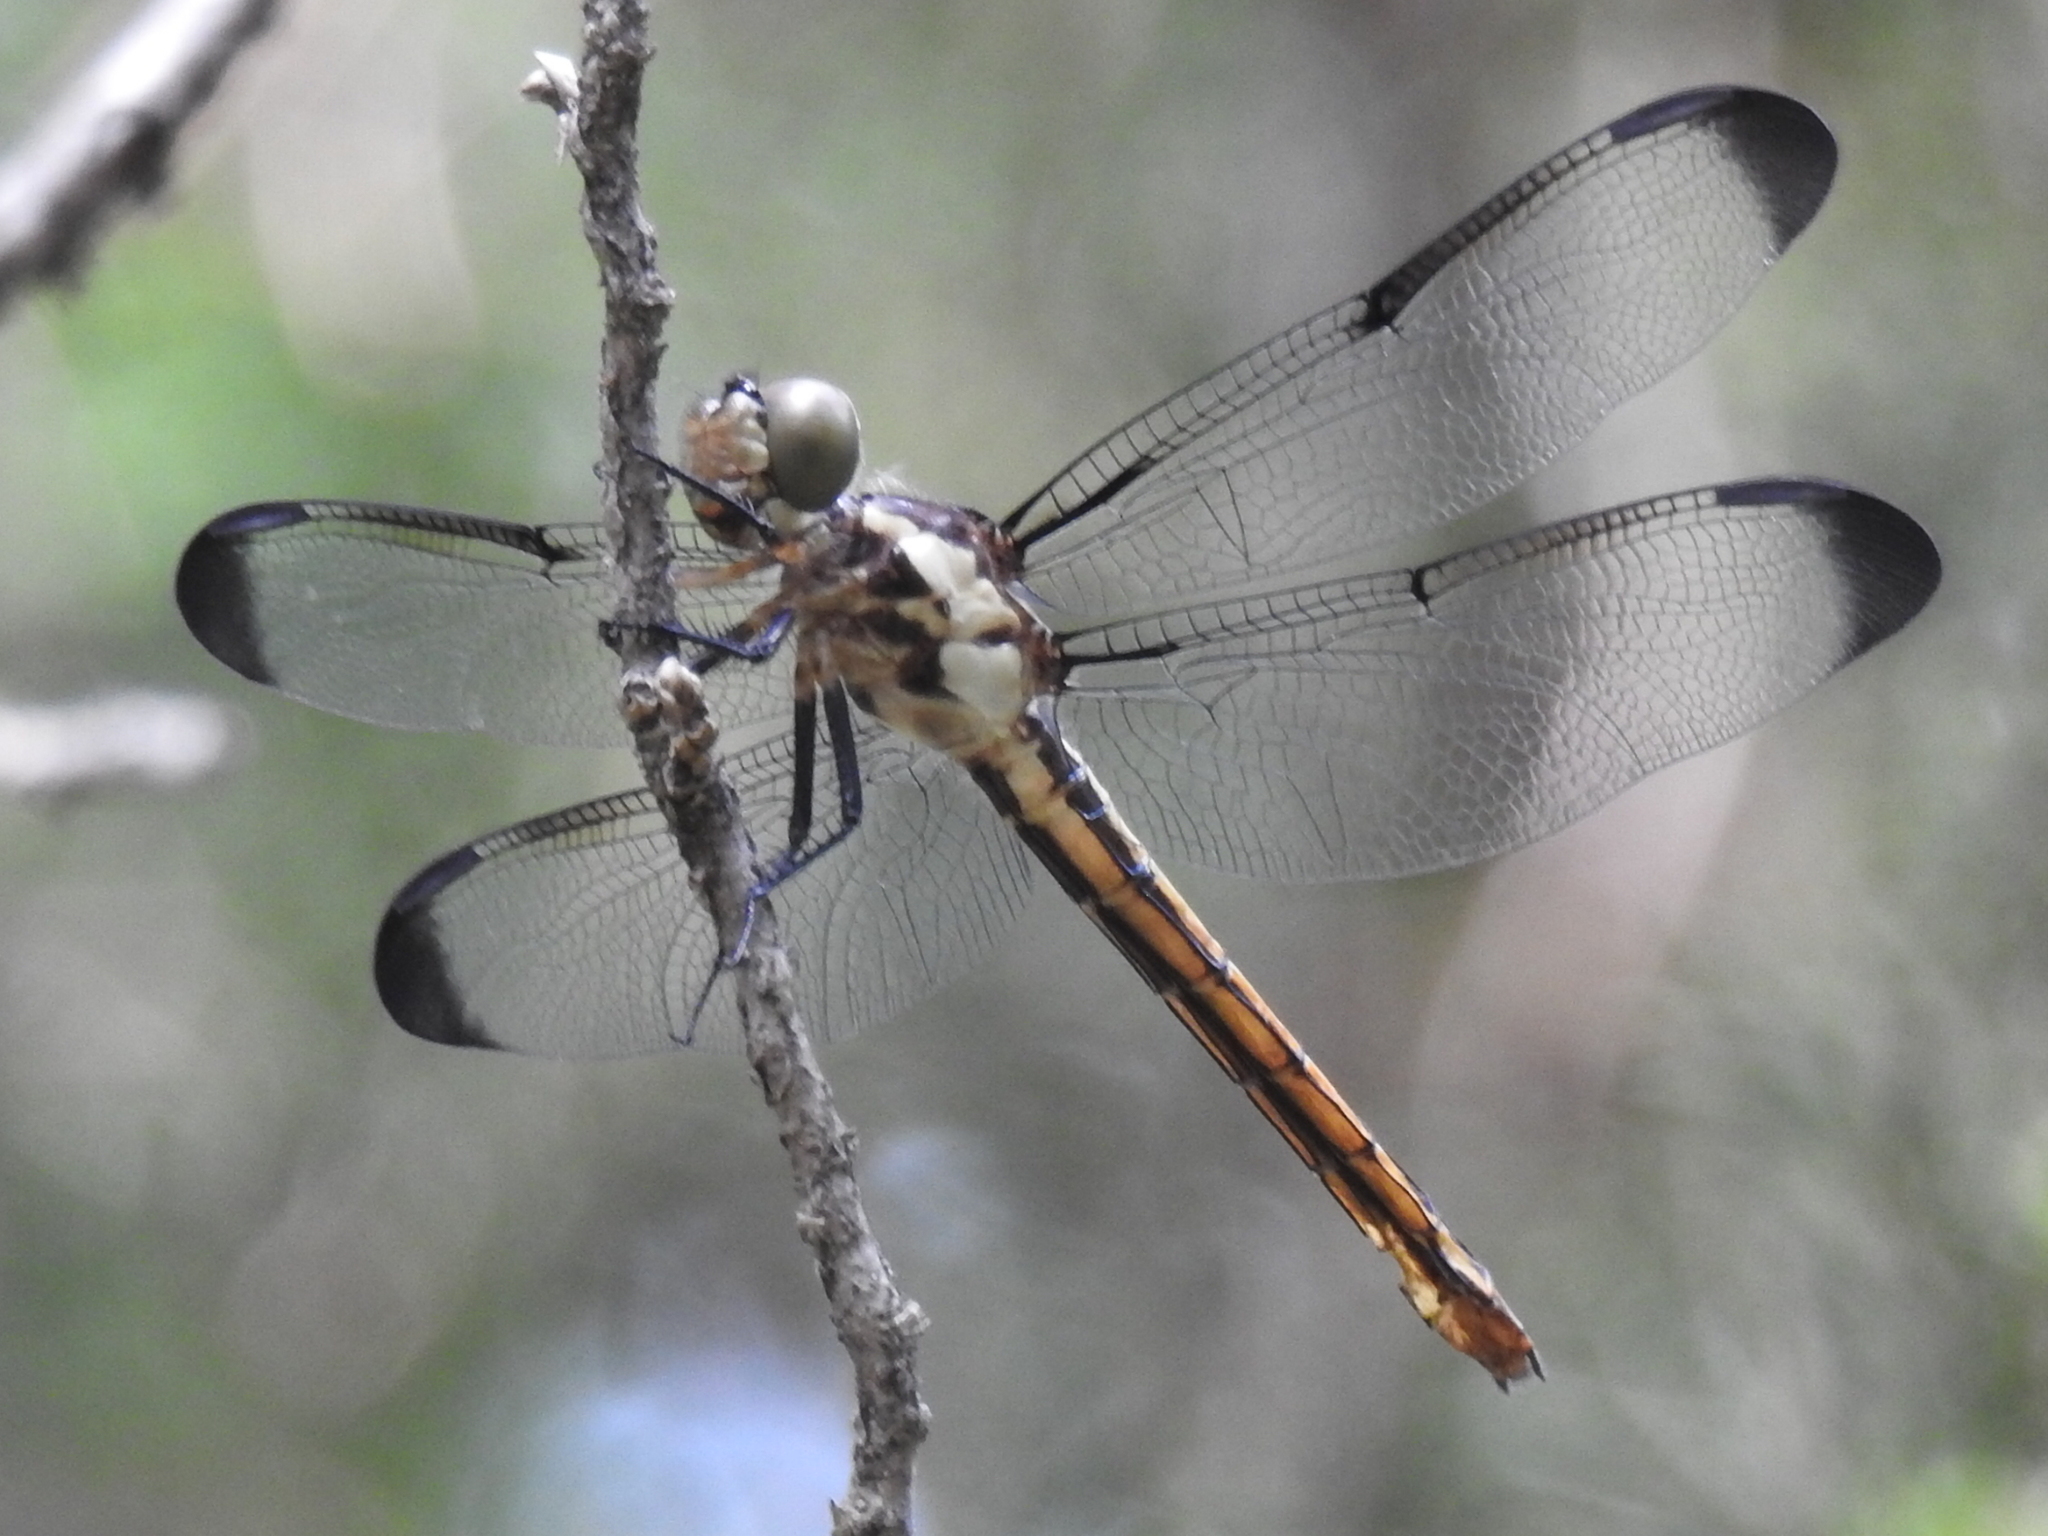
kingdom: Animalia
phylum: Arthropoda
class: Insecta
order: Odonata
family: Libellulidae
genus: Libellula
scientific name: Libellula vibrans
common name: Great blue skimmer
